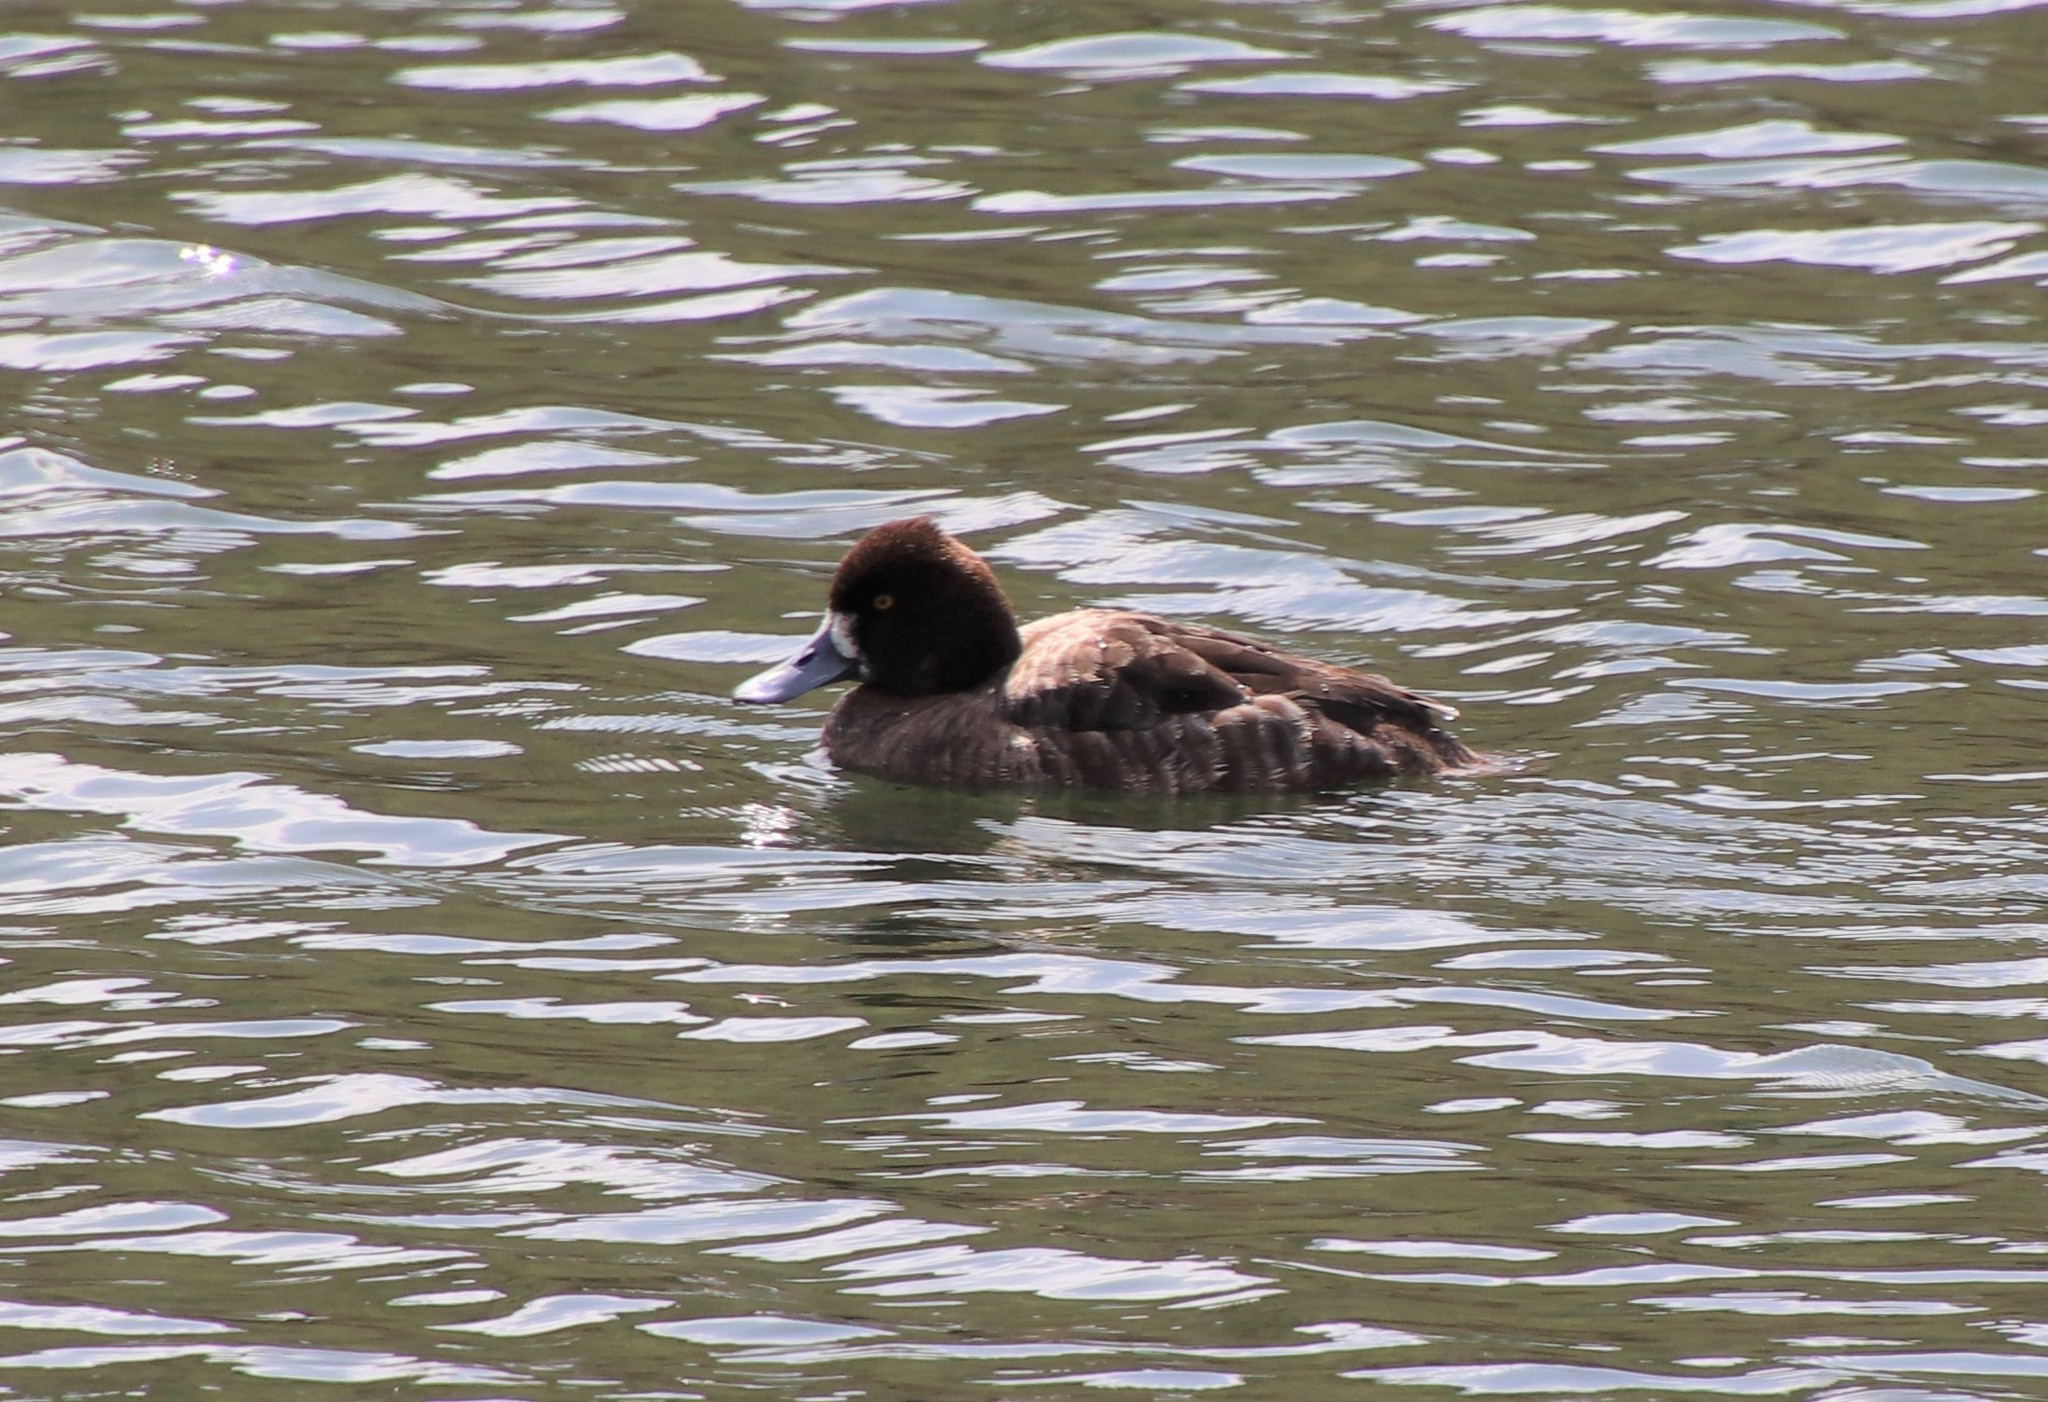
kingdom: Animalia
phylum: Chordata
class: Aves
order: Anseriformes
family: Anatidae
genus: Aythya
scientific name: Aythya affinis
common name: Lesser scaup
